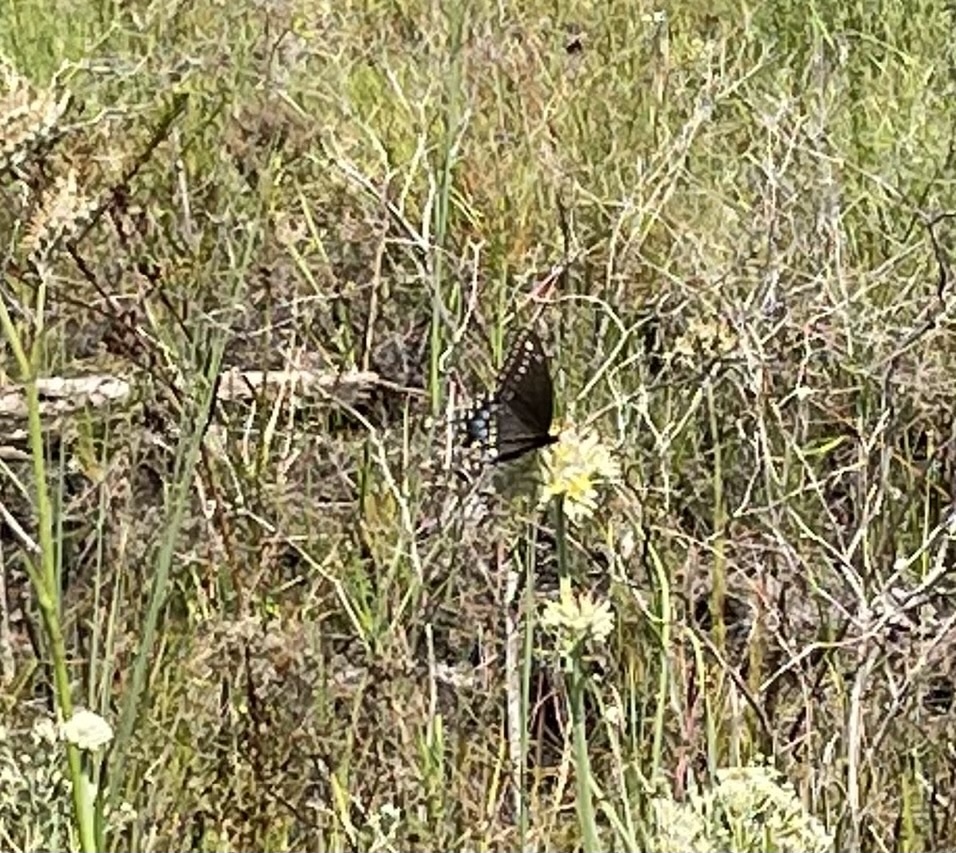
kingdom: Animalia
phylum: Arthropoda
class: Insecta
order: Lepidoptera
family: Papilionidae
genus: Papilio
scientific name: Papilio polyxenes
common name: Black swallowtail
